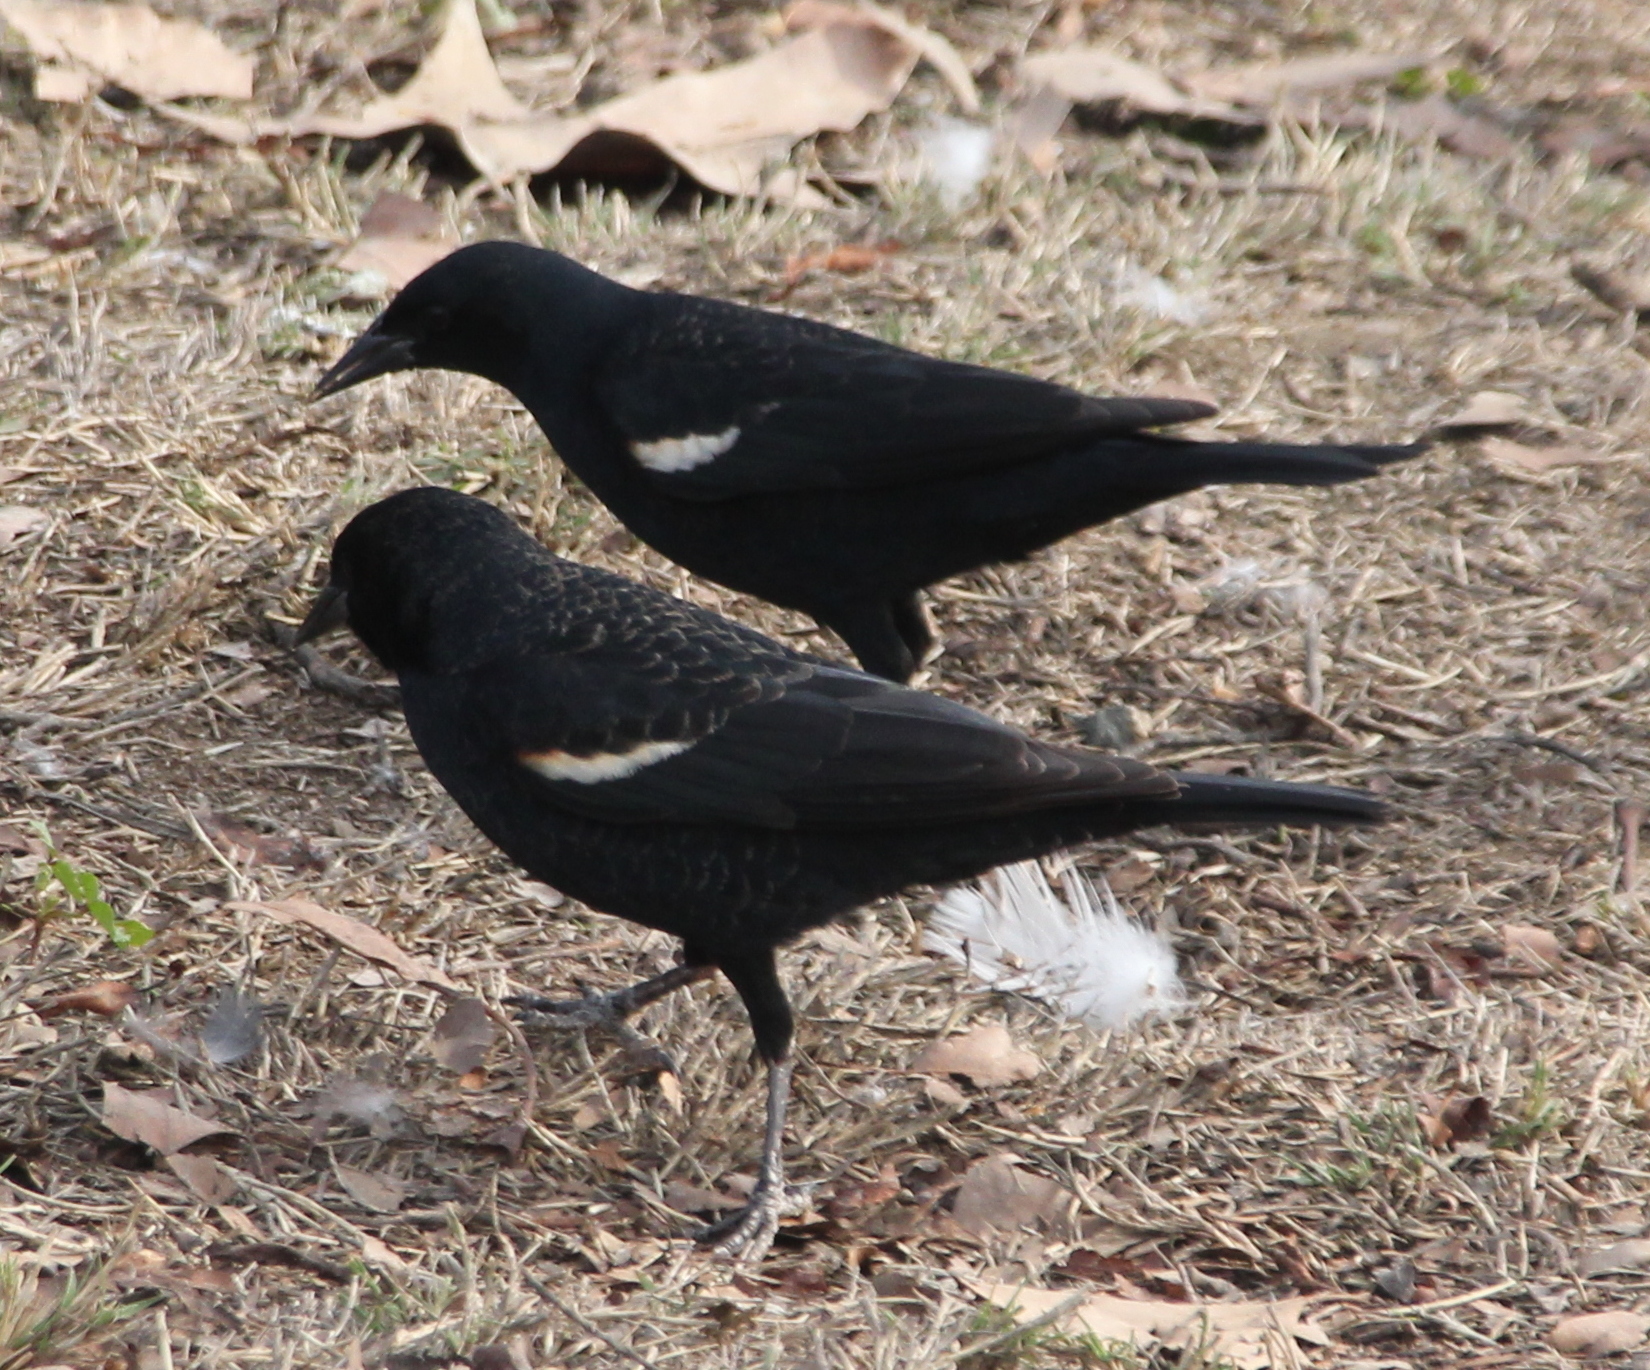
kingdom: Animalia
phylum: Chordata
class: Aves
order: Passeriformes
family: Icteridae
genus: Agelaius
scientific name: Agelaius tricolor
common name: Tricolored blackbird
